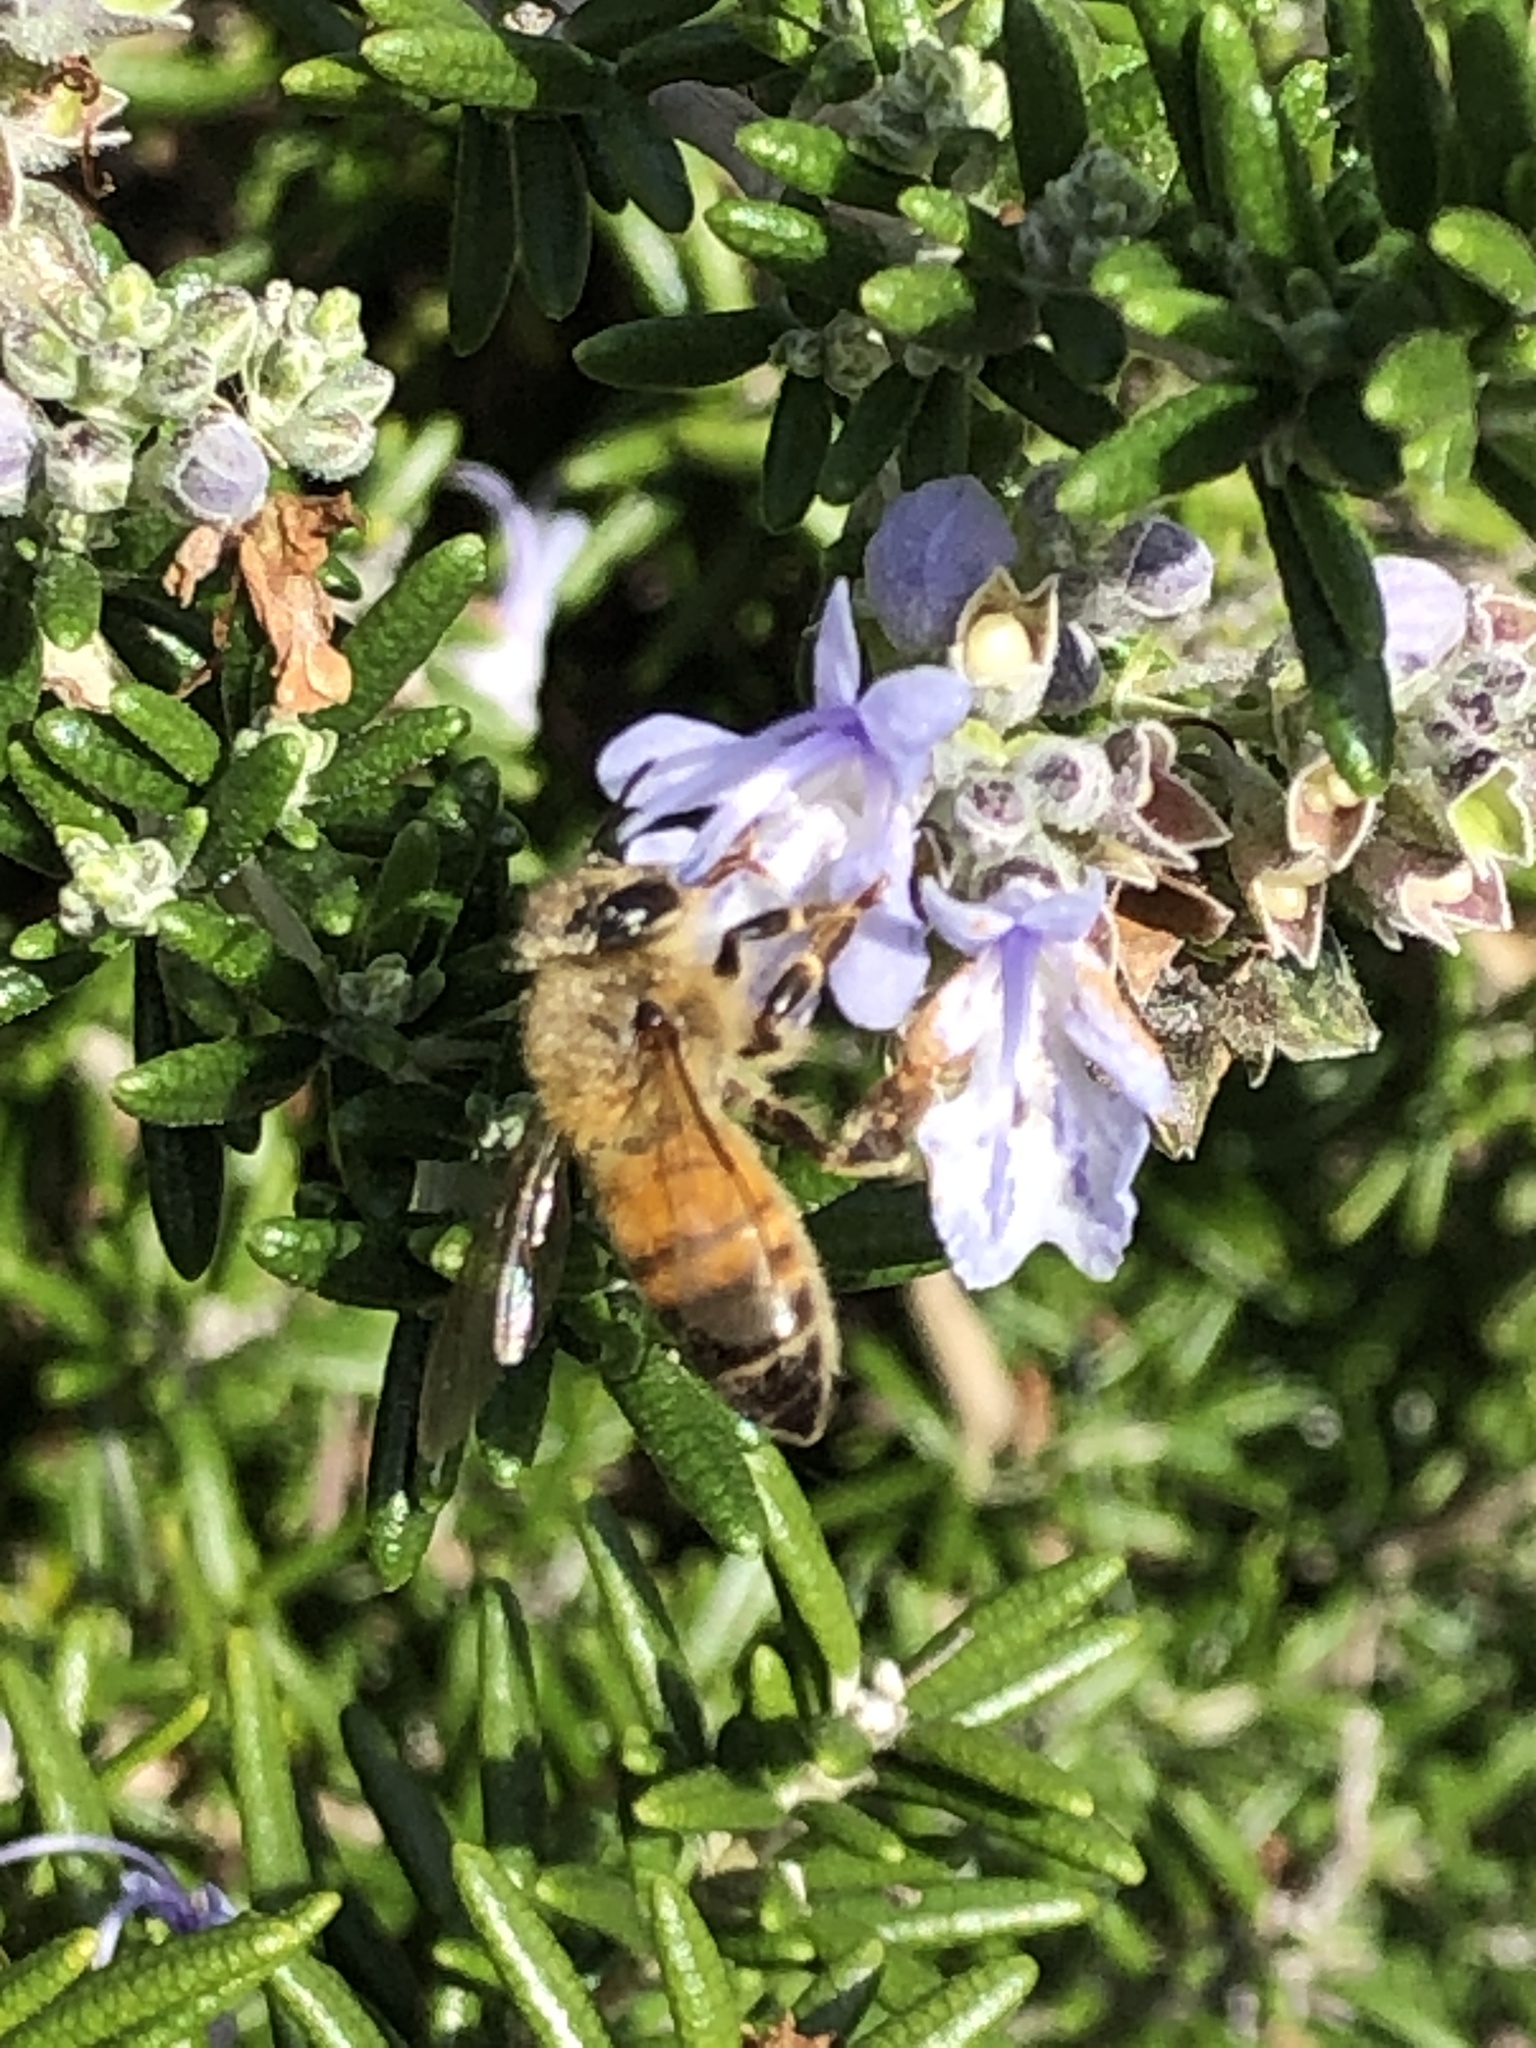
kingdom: Animalia
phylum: Arthropoda
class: Insecta
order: Hymenoptera
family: Apidae
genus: Apis
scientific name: Apis mellifera
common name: Honey bee
